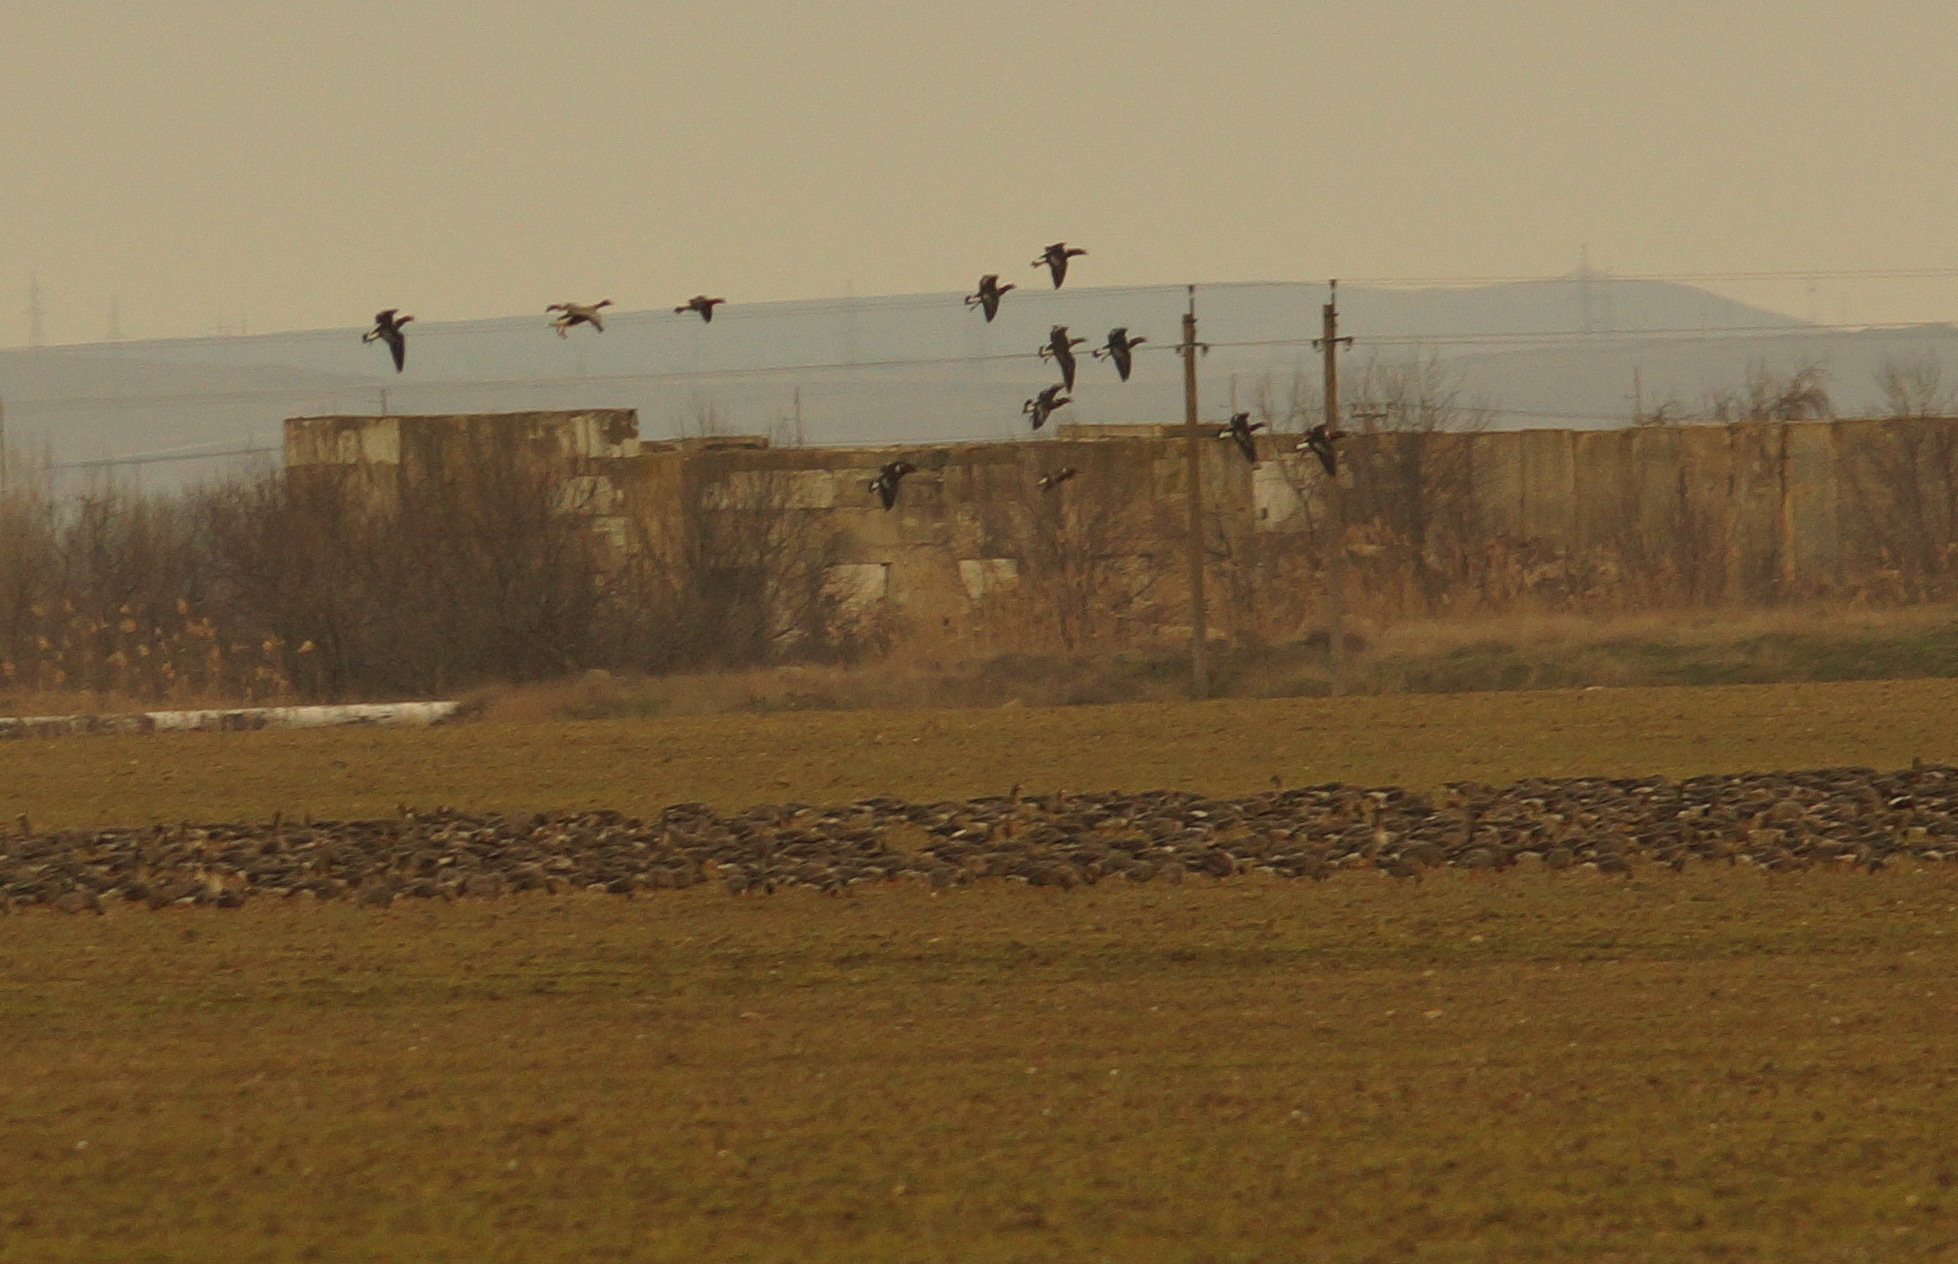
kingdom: Animalia
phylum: Chordata
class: Aves
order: Anseriformes
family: Anatidae
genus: Anser
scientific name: Anser albifrons
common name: Greater white-fronted goose
